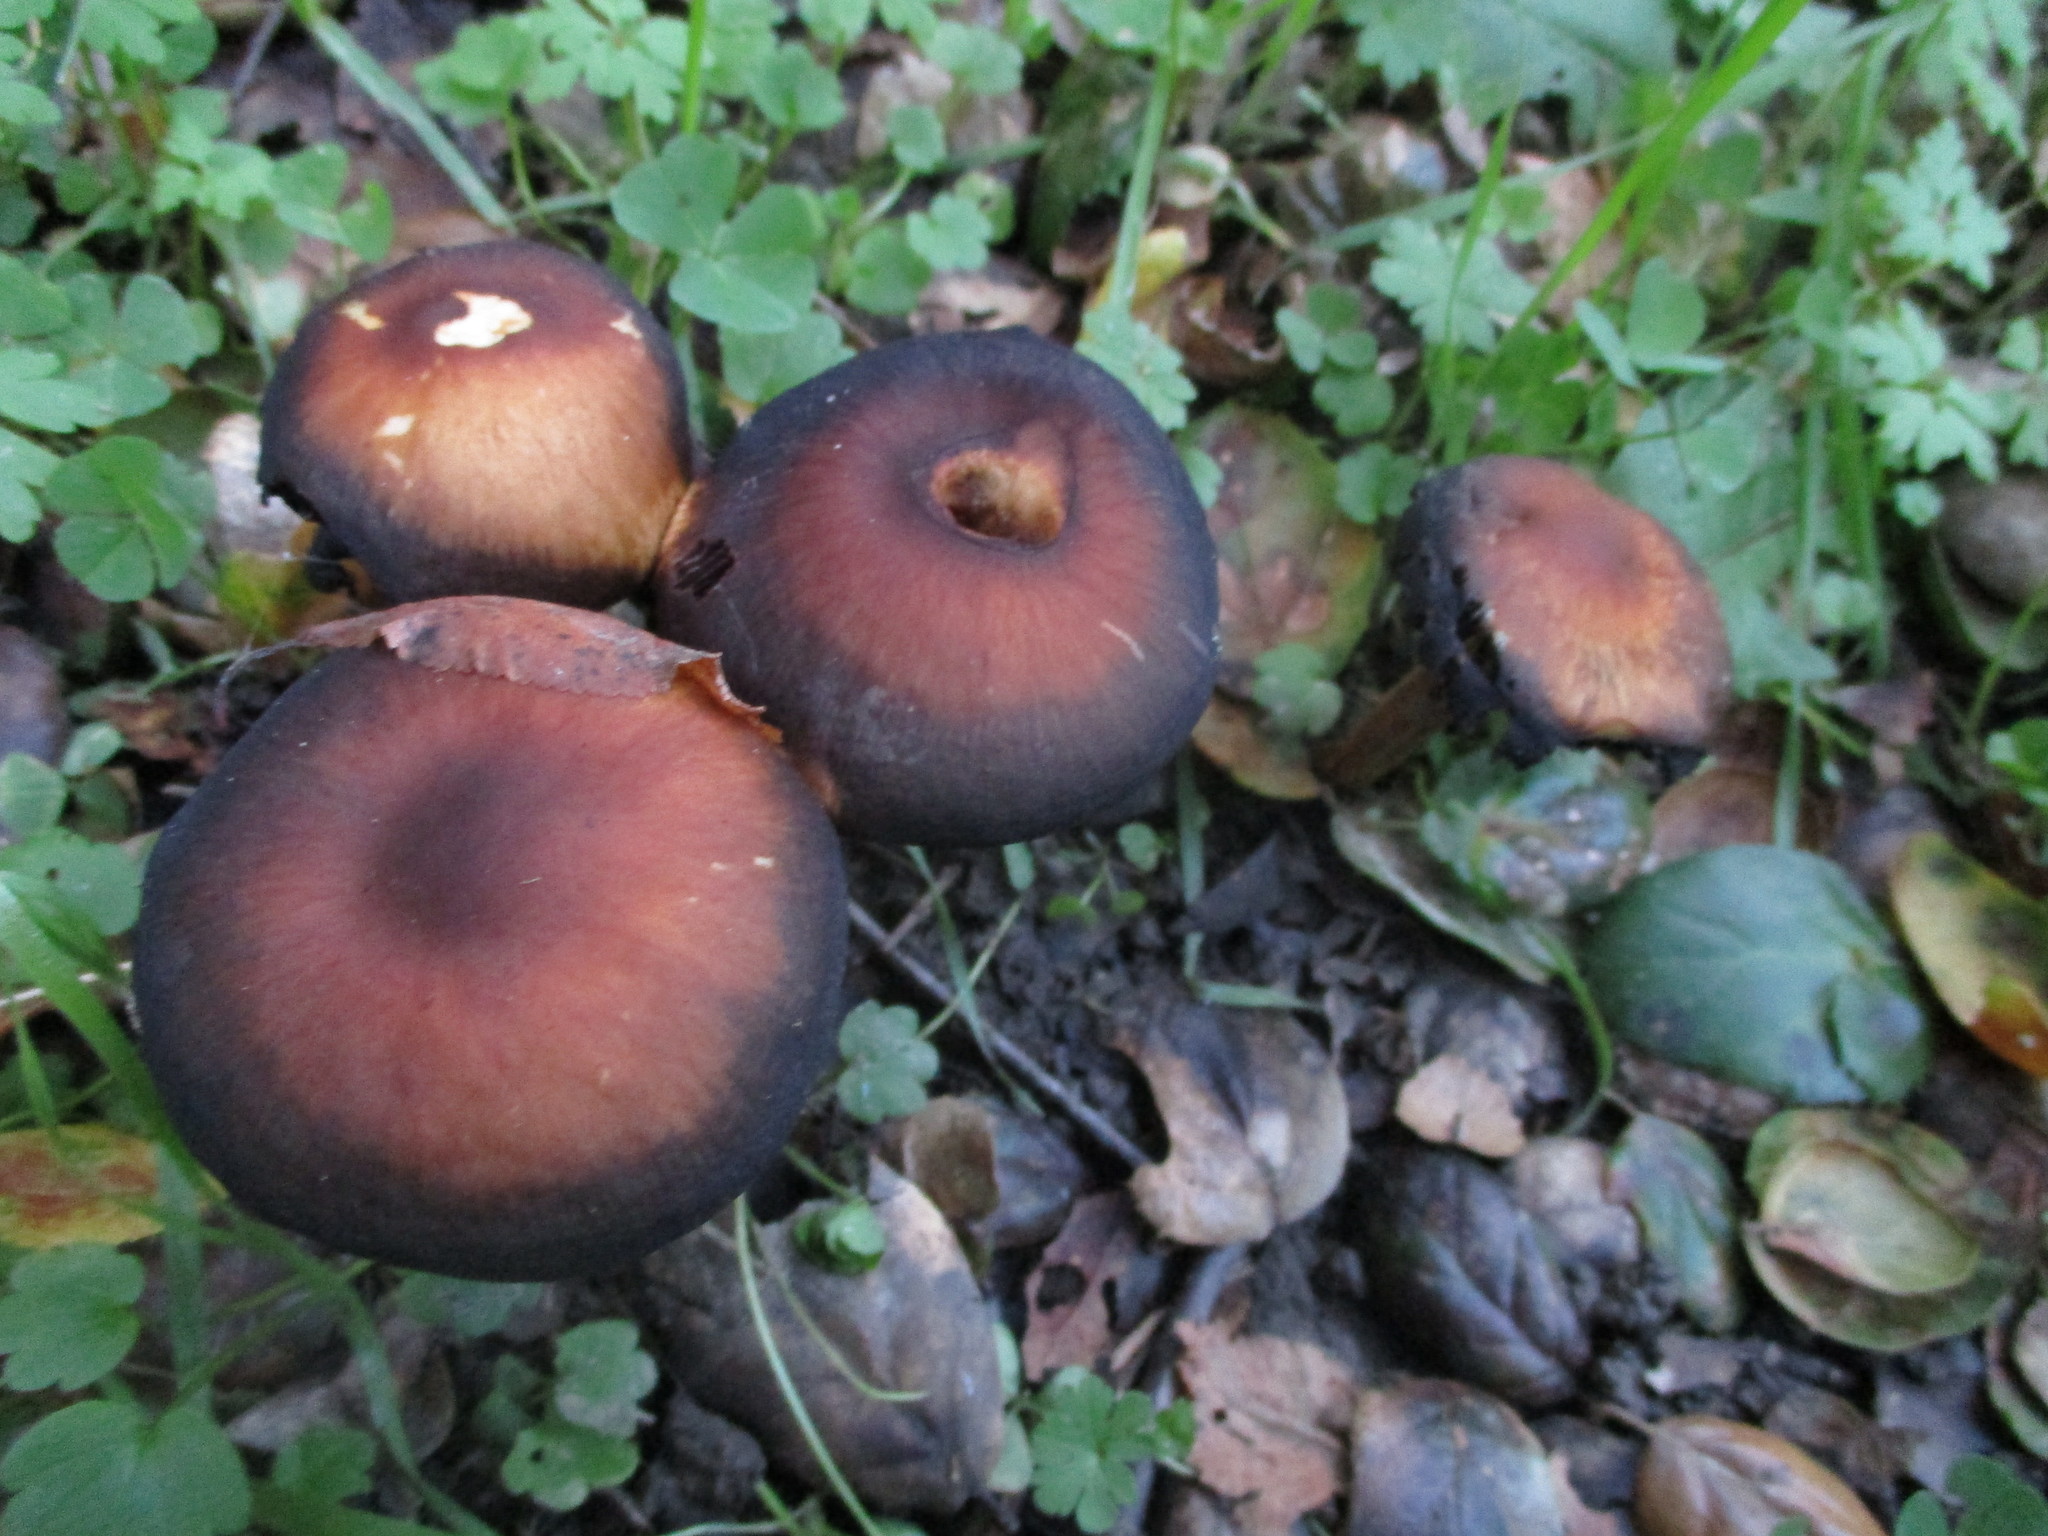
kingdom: Fungi
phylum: Basidiomycota
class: Agaricomycetes
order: Agaricales
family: Strophariaceae
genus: Leratiomyces
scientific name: Leratiomyces ceres
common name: Redlead roundhead
